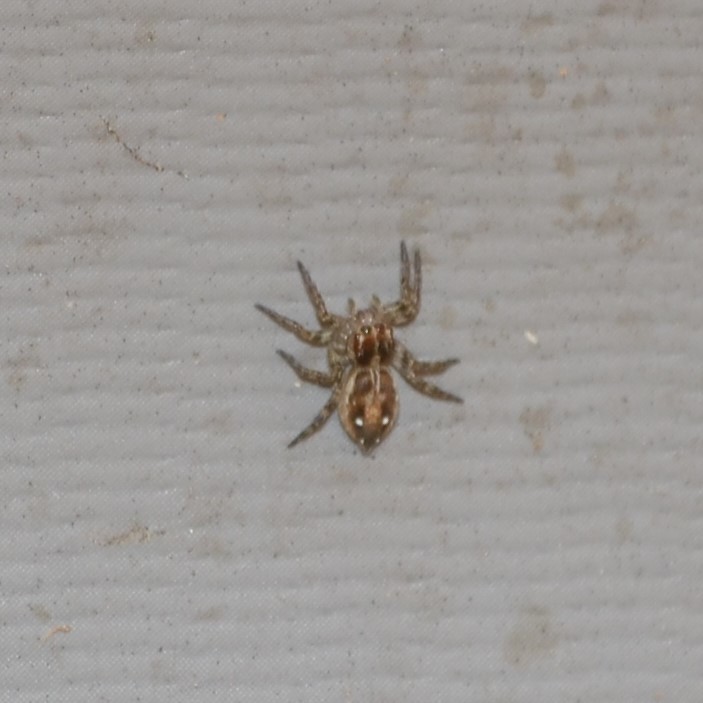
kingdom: Animalia
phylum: Arthropoda
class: Arachnida
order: Araneae
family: Salticidae
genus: Plexippus
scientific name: Plexippus paykulli
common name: Pantropical jumper
